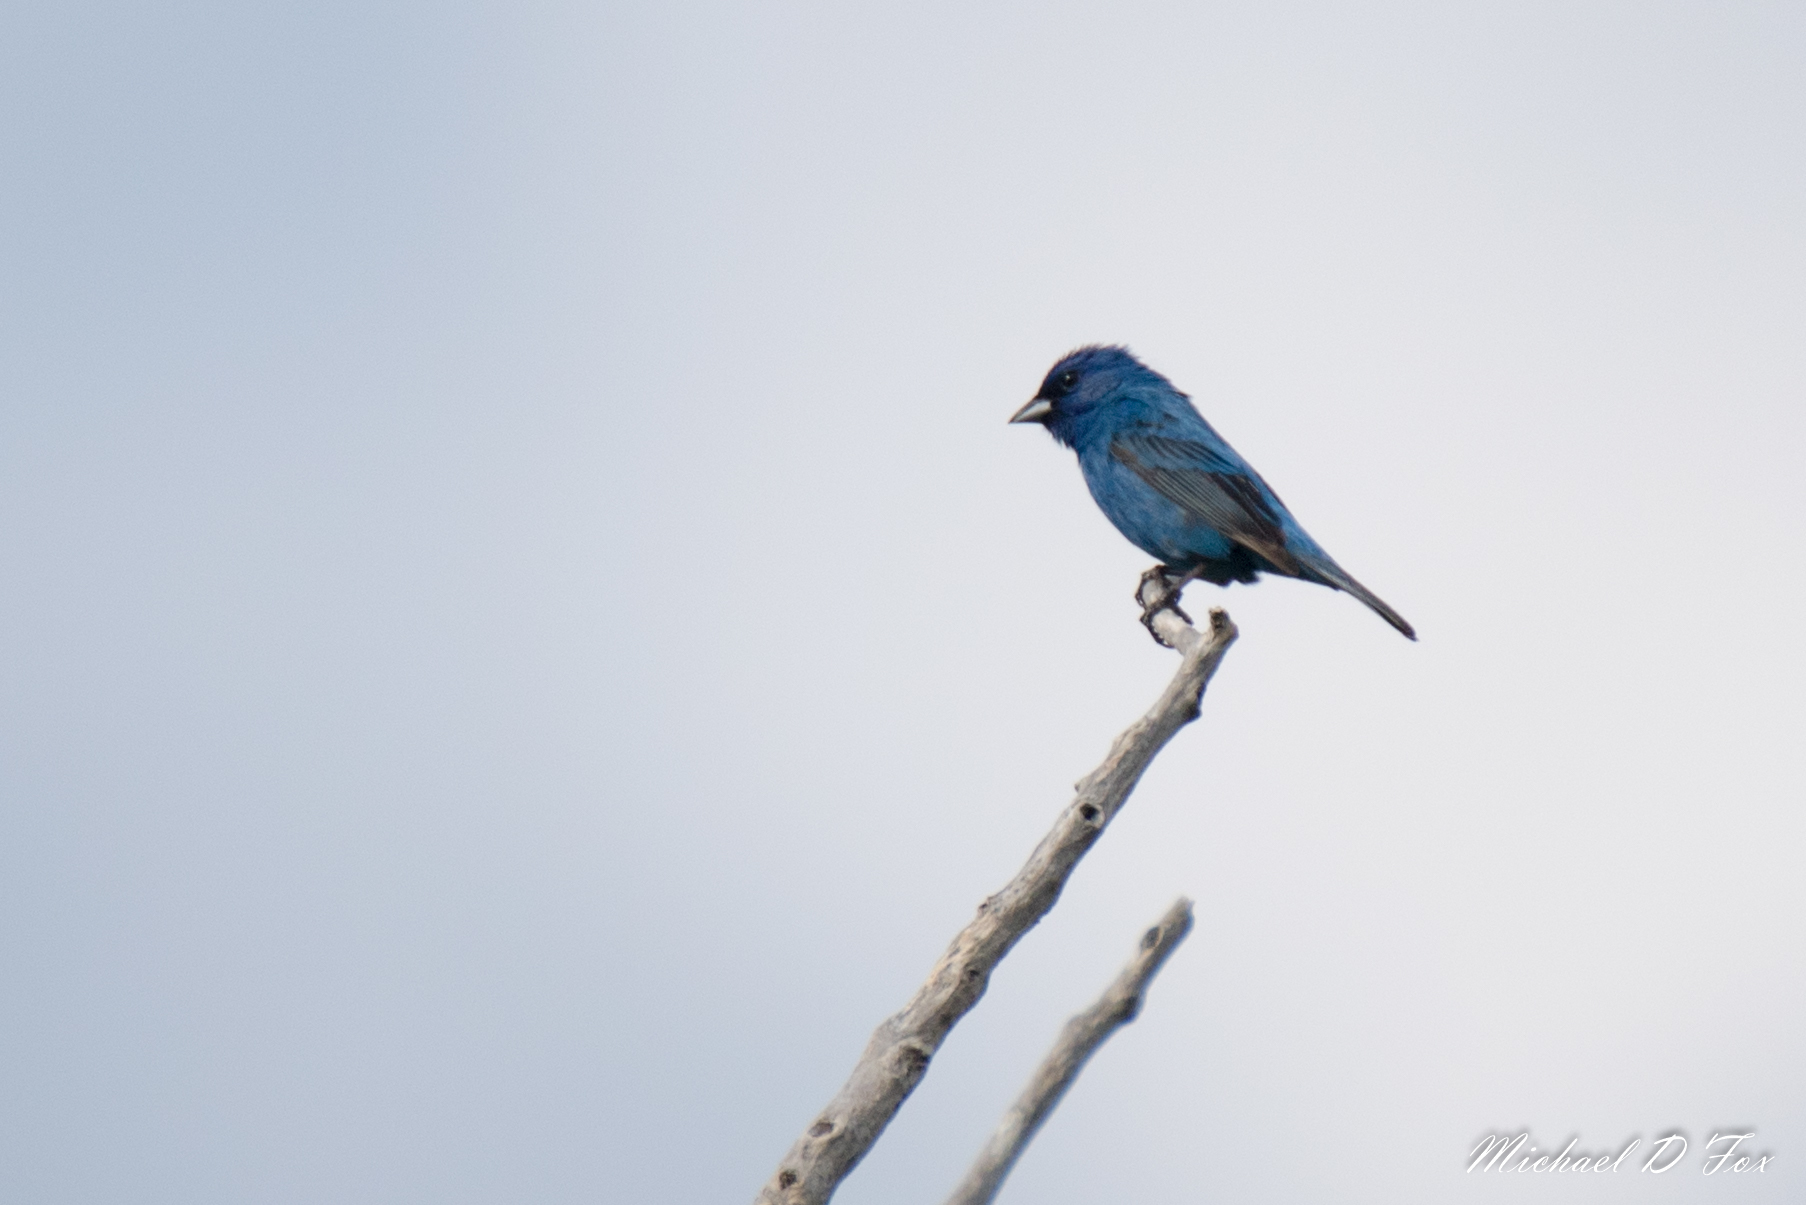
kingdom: Animalia
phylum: Chordata
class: Aves
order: Passeriformes
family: Cardinalidae
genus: Passerina
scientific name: Passerina cyanea
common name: Indigo bunting
